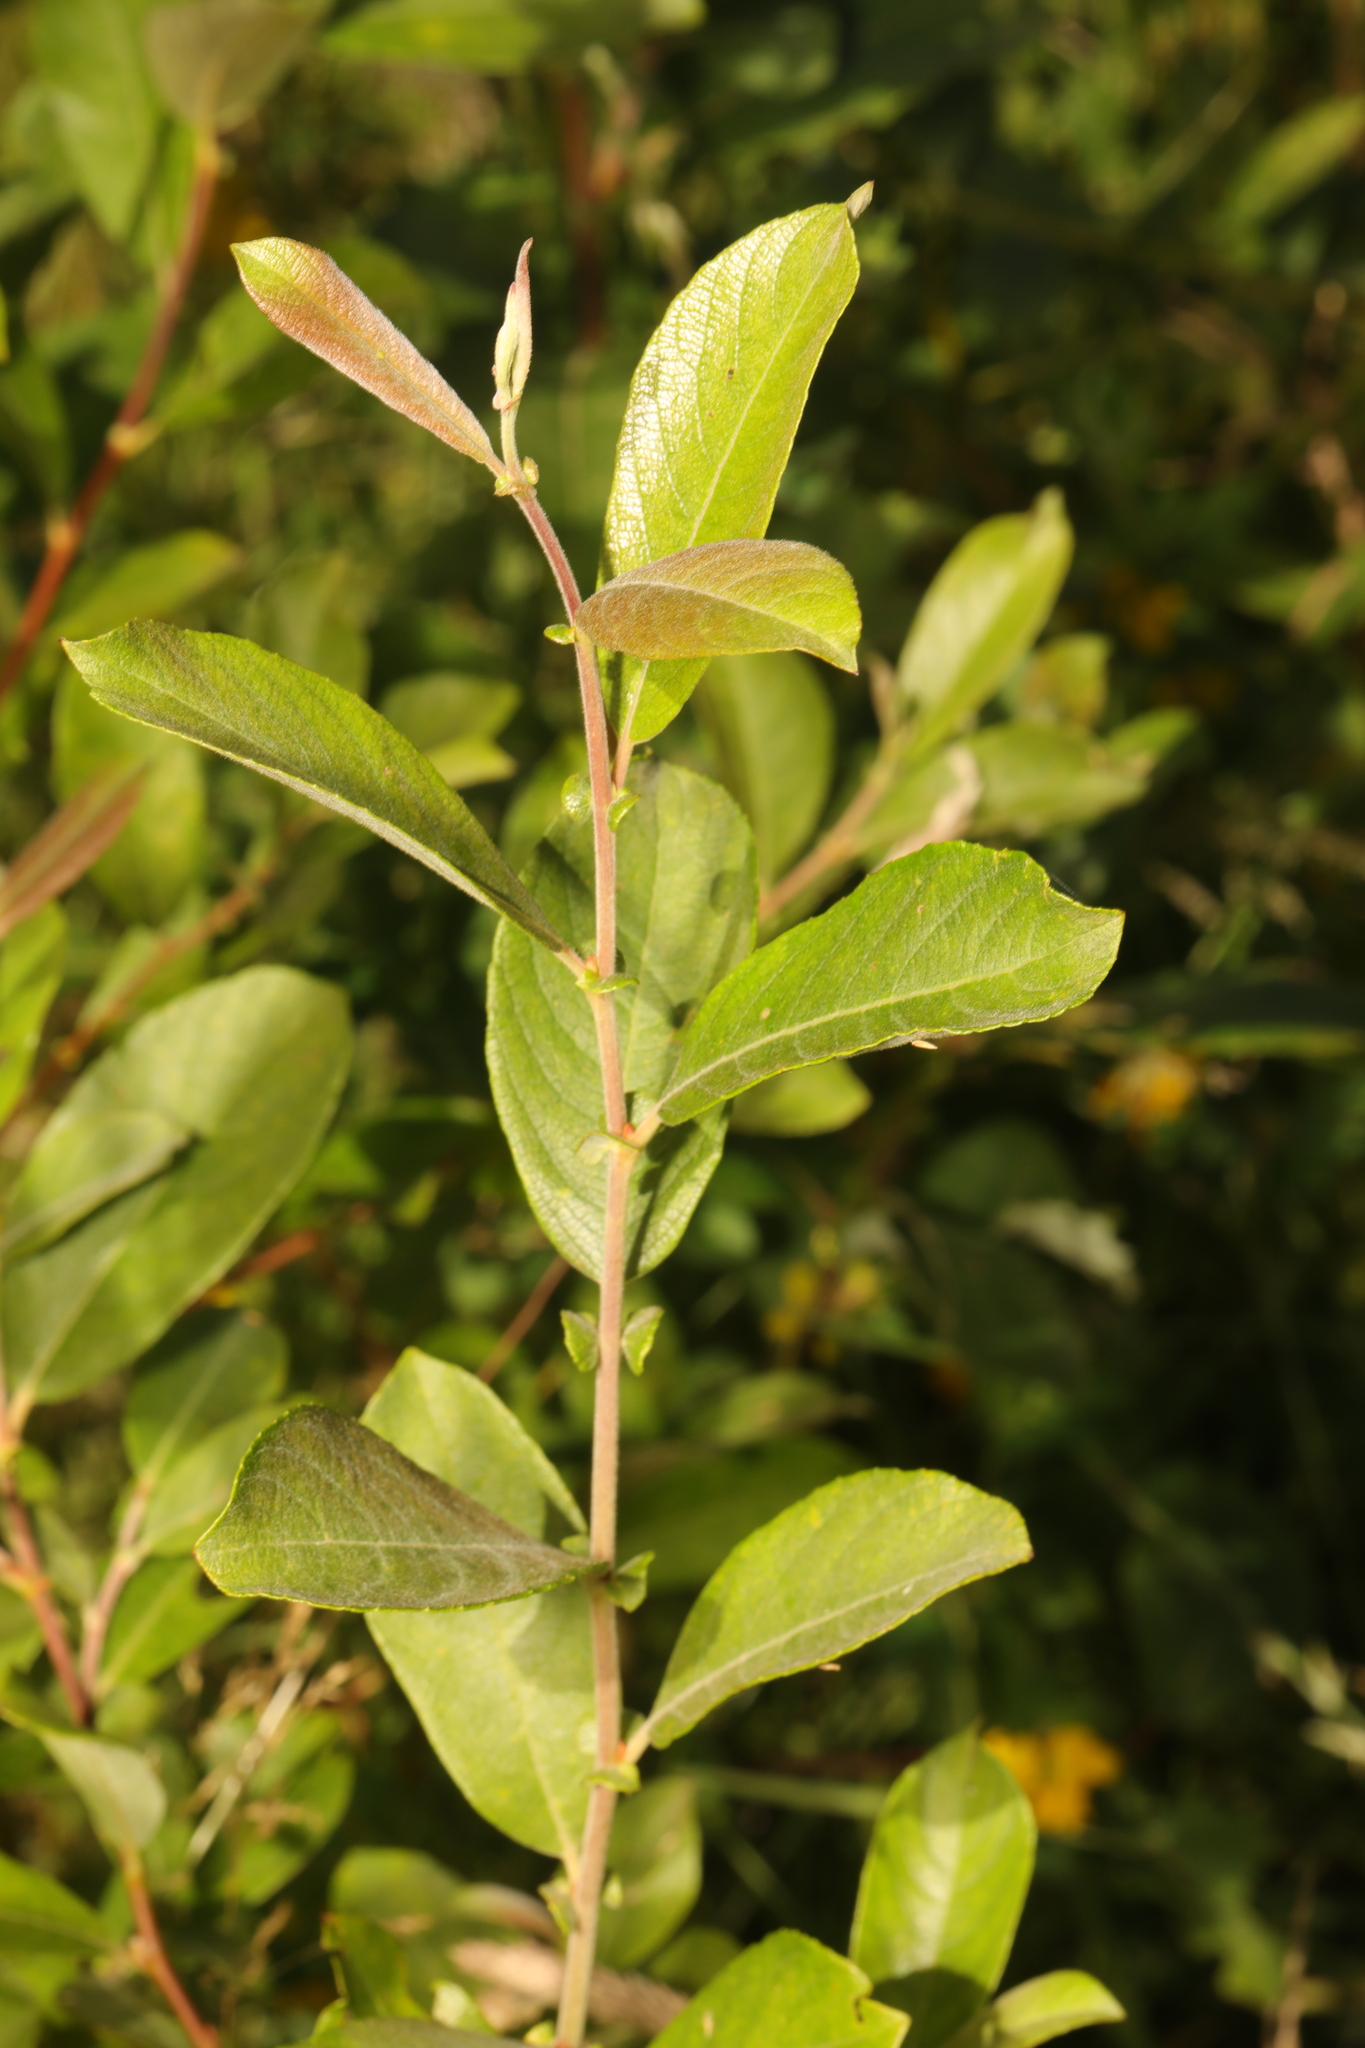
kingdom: Plantae
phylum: Tracheophyta
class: Magnoliopsida
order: Malpighiales
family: Salicaceae
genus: Salix
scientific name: Salix cinerea
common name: Common sallow
